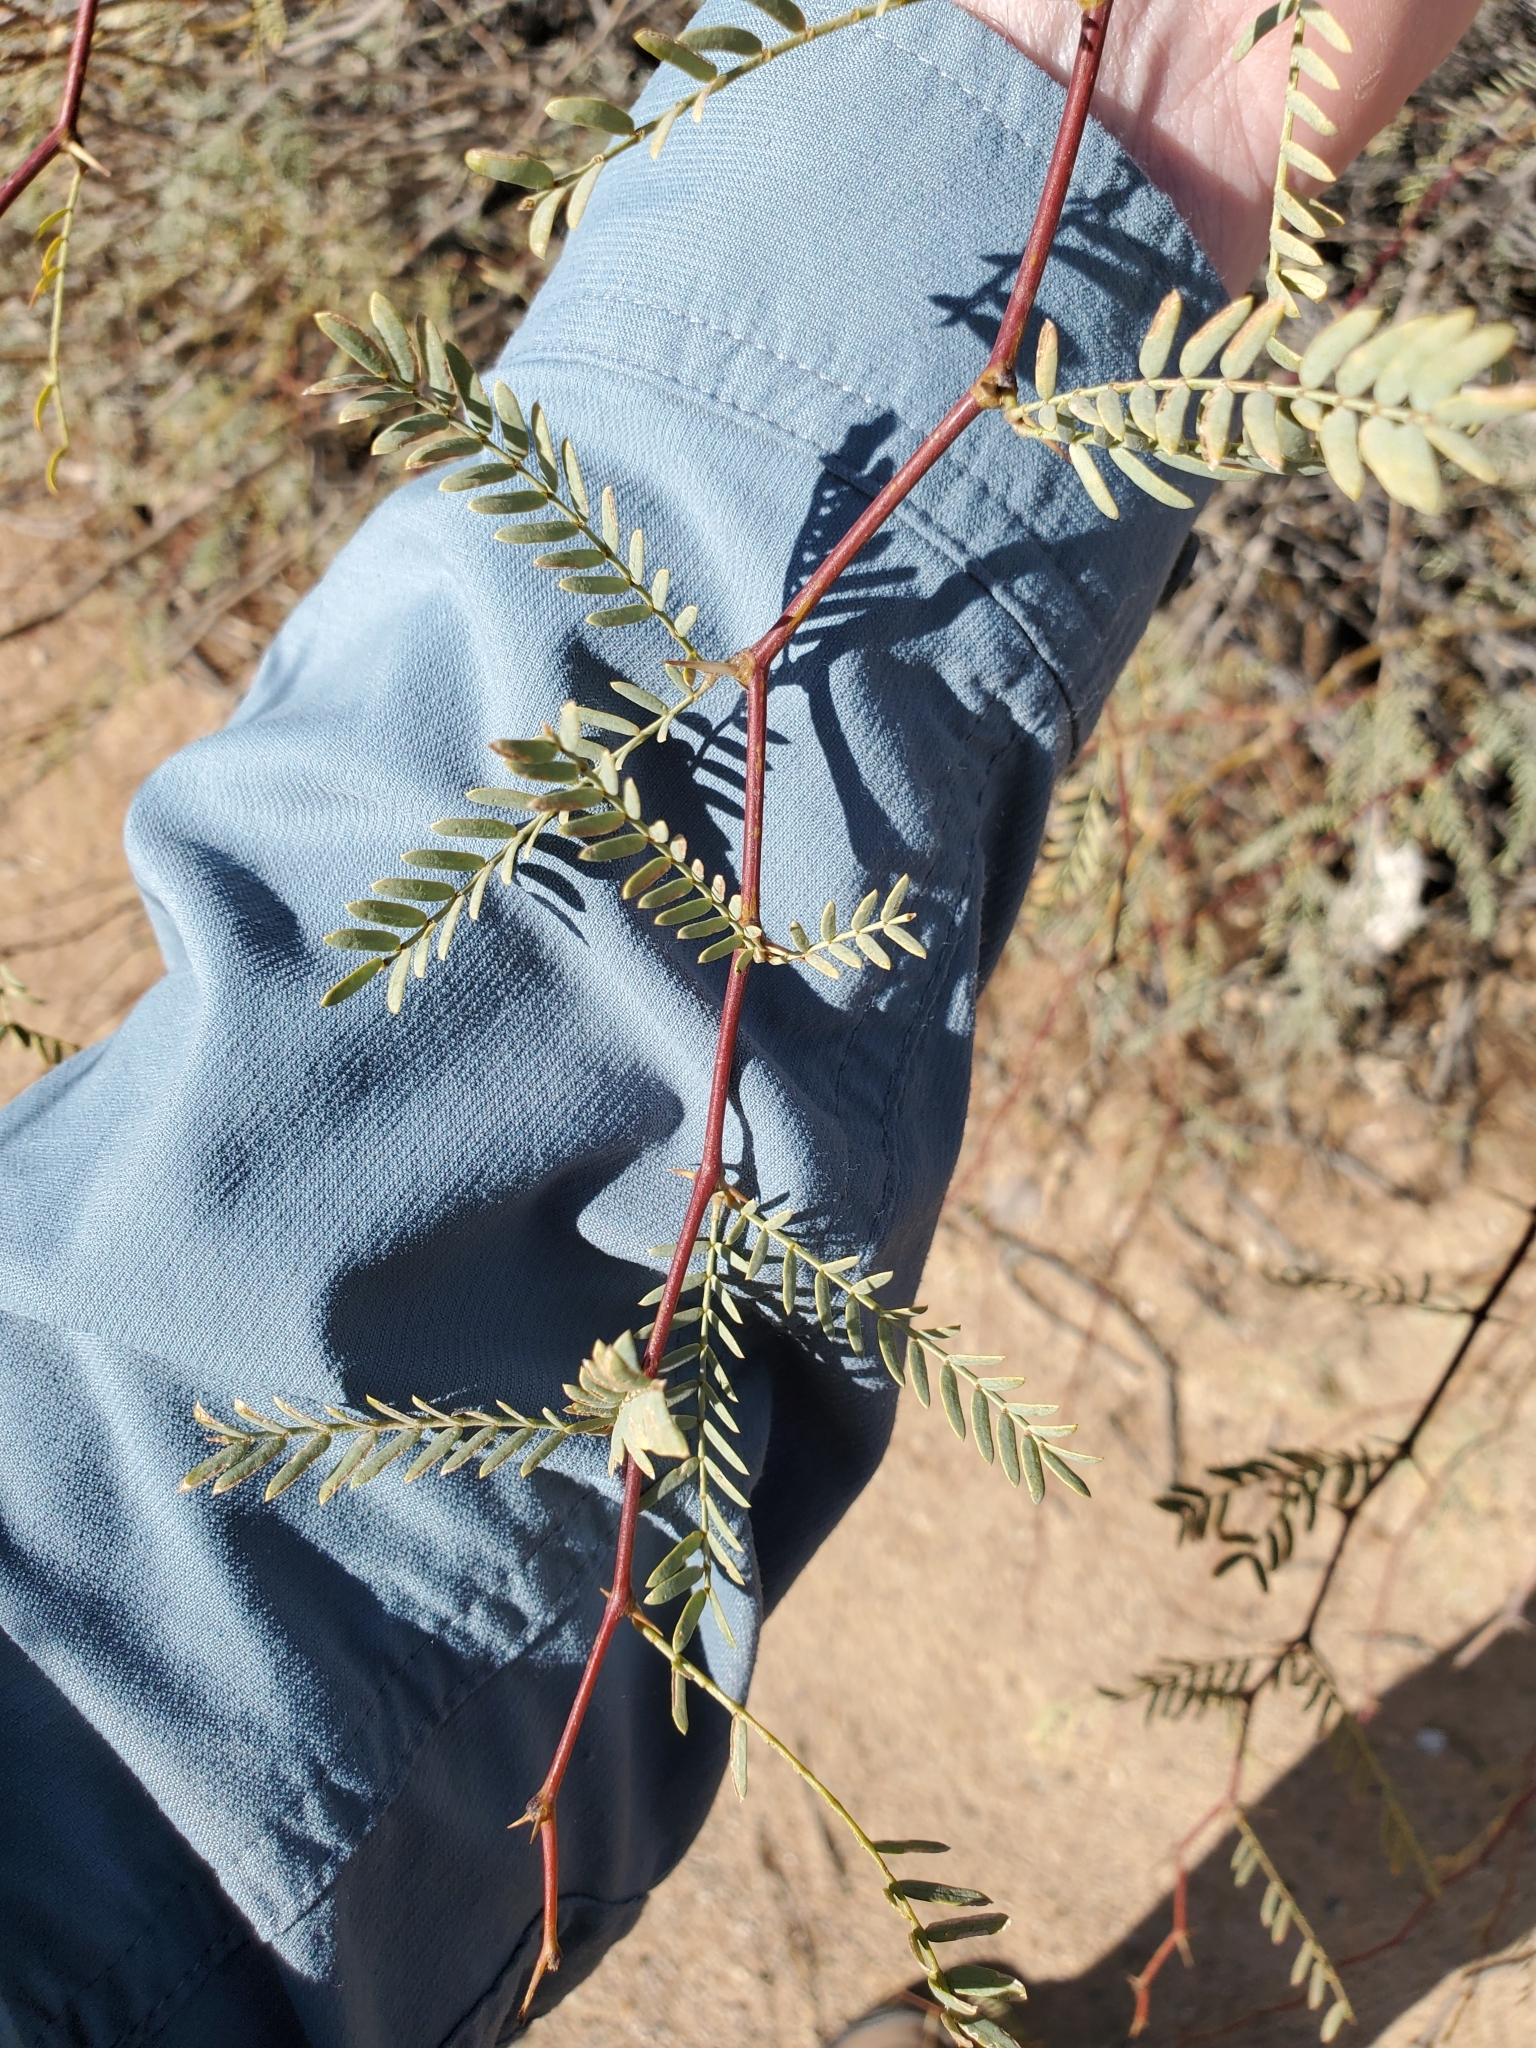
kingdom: Plantae
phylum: Tracheophyta
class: Magnoliopsida
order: Fabales
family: Fabaceae
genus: Prosopis
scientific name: Prosopis pubescens
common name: Screw-bean
